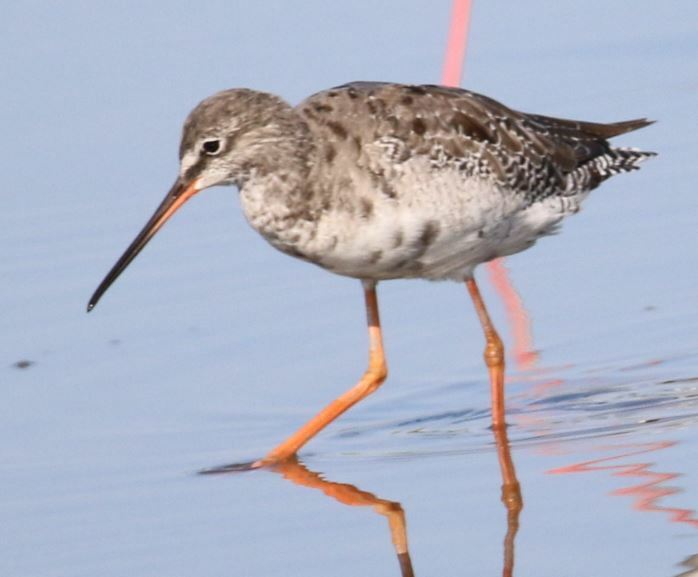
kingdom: Animalia
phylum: Chordata
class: Aves
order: Charadriiformes
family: Scolopacidae
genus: Tringa
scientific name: Tringa erythropus
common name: Spotted redshank
